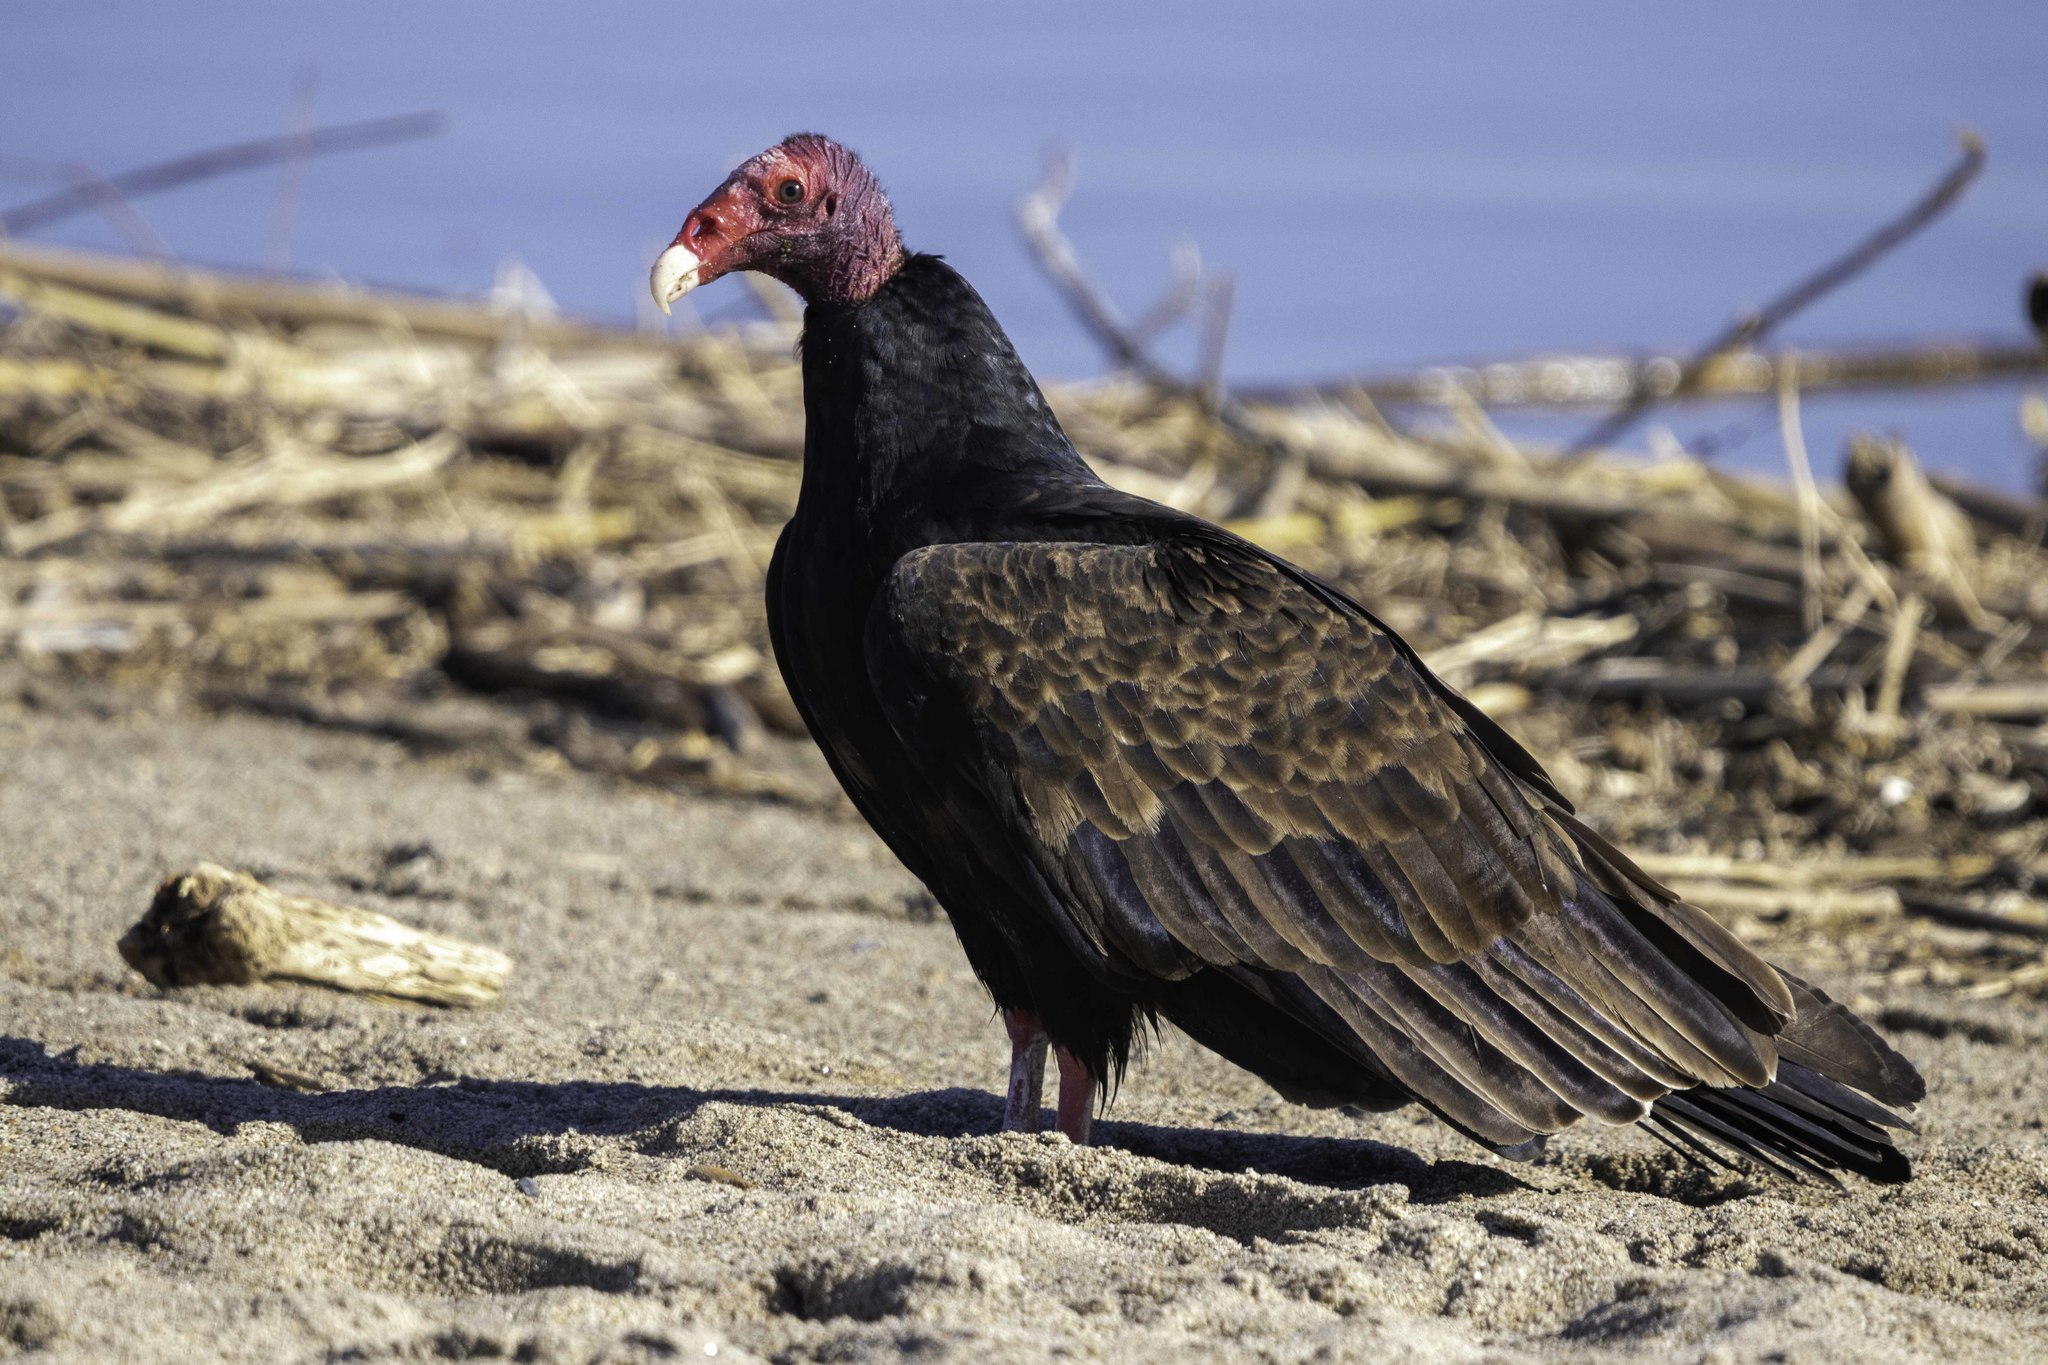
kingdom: Animalia
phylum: Chordata
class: Aves
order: Accipitriformes
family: Cathartidae
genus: Cathartes
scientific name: Cathartes aura
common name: Turkey vulture
